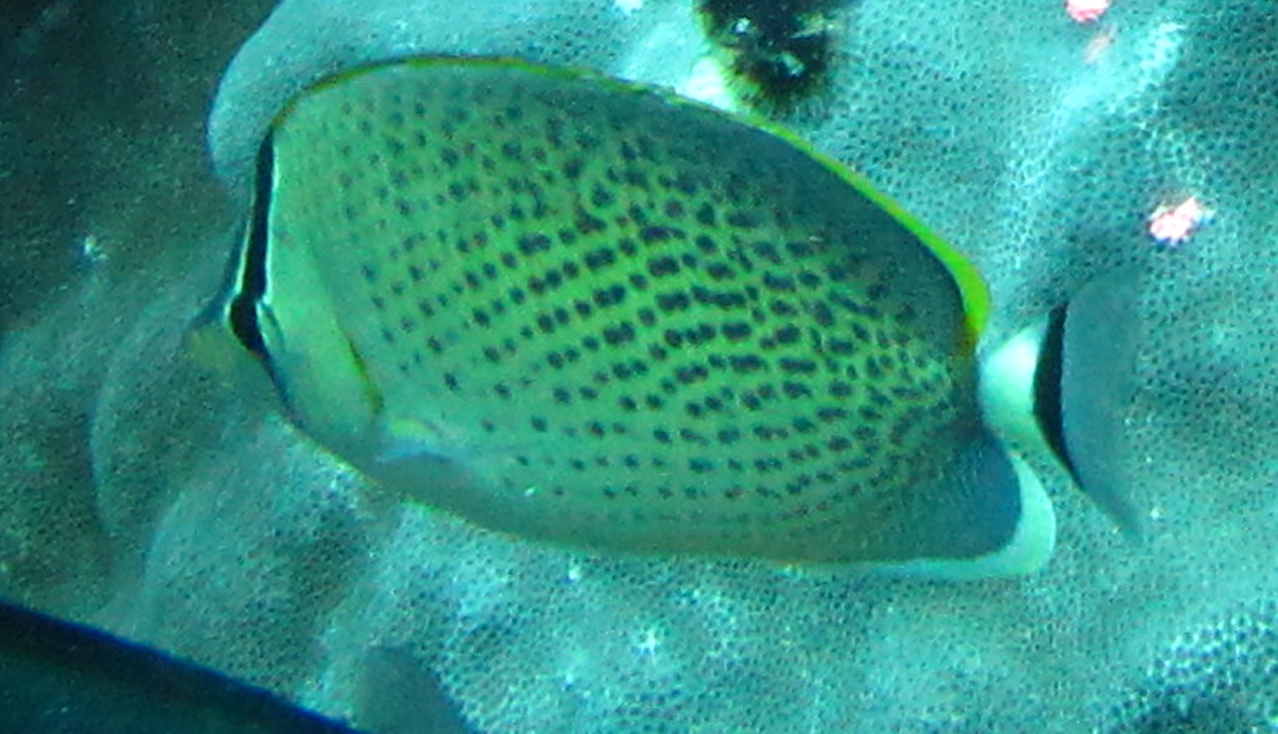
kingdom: Animalia
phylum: Chordata
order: Perciformes
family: Chaetodontidae
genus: Chaetodon
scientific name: Chaetodon guttatissimus
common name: Spotted butterflyfish
